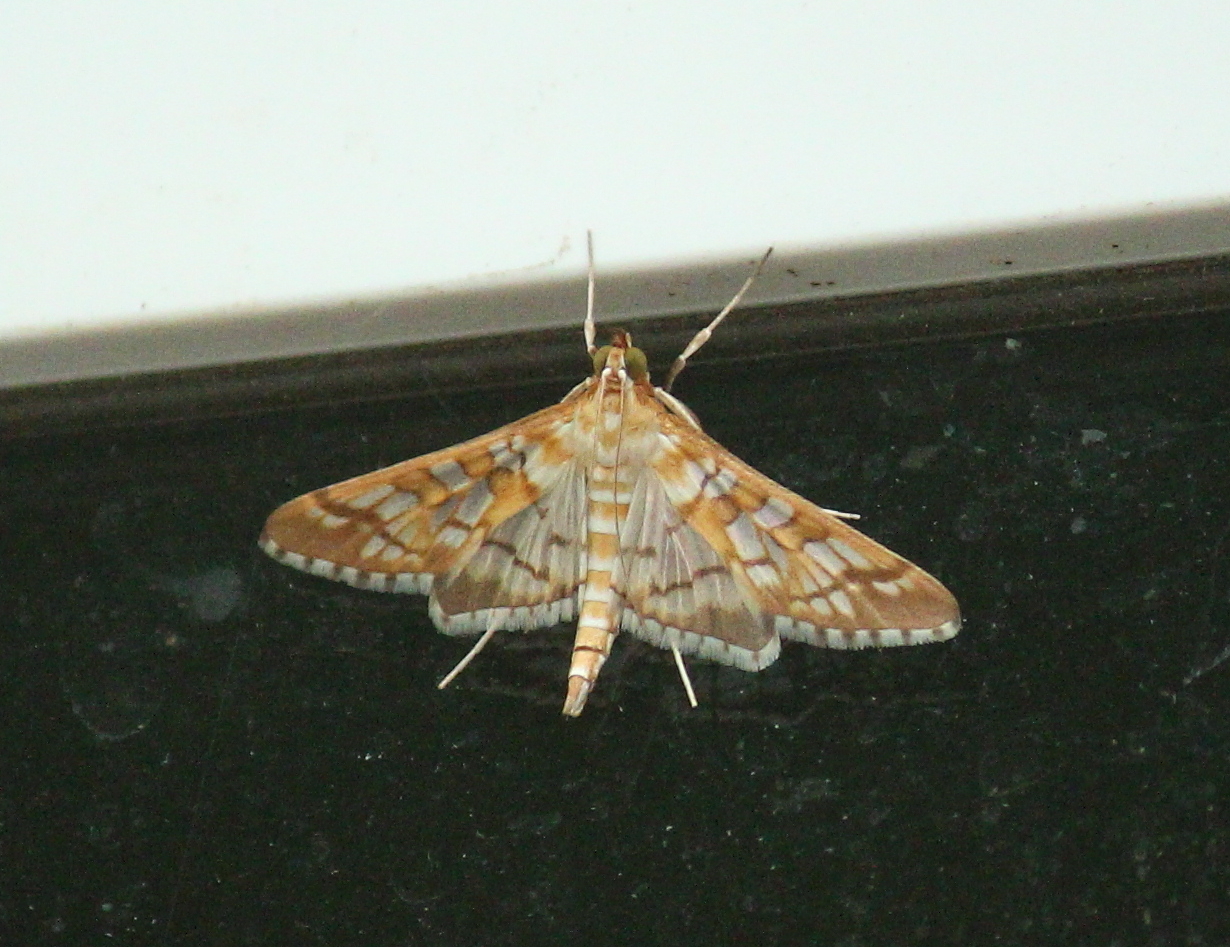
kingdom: Animalia
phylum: Arthropoda
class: Insecta
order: Lepidoptera
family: Crambidae
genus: Epipagis
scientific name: Epipagis fenestralis
